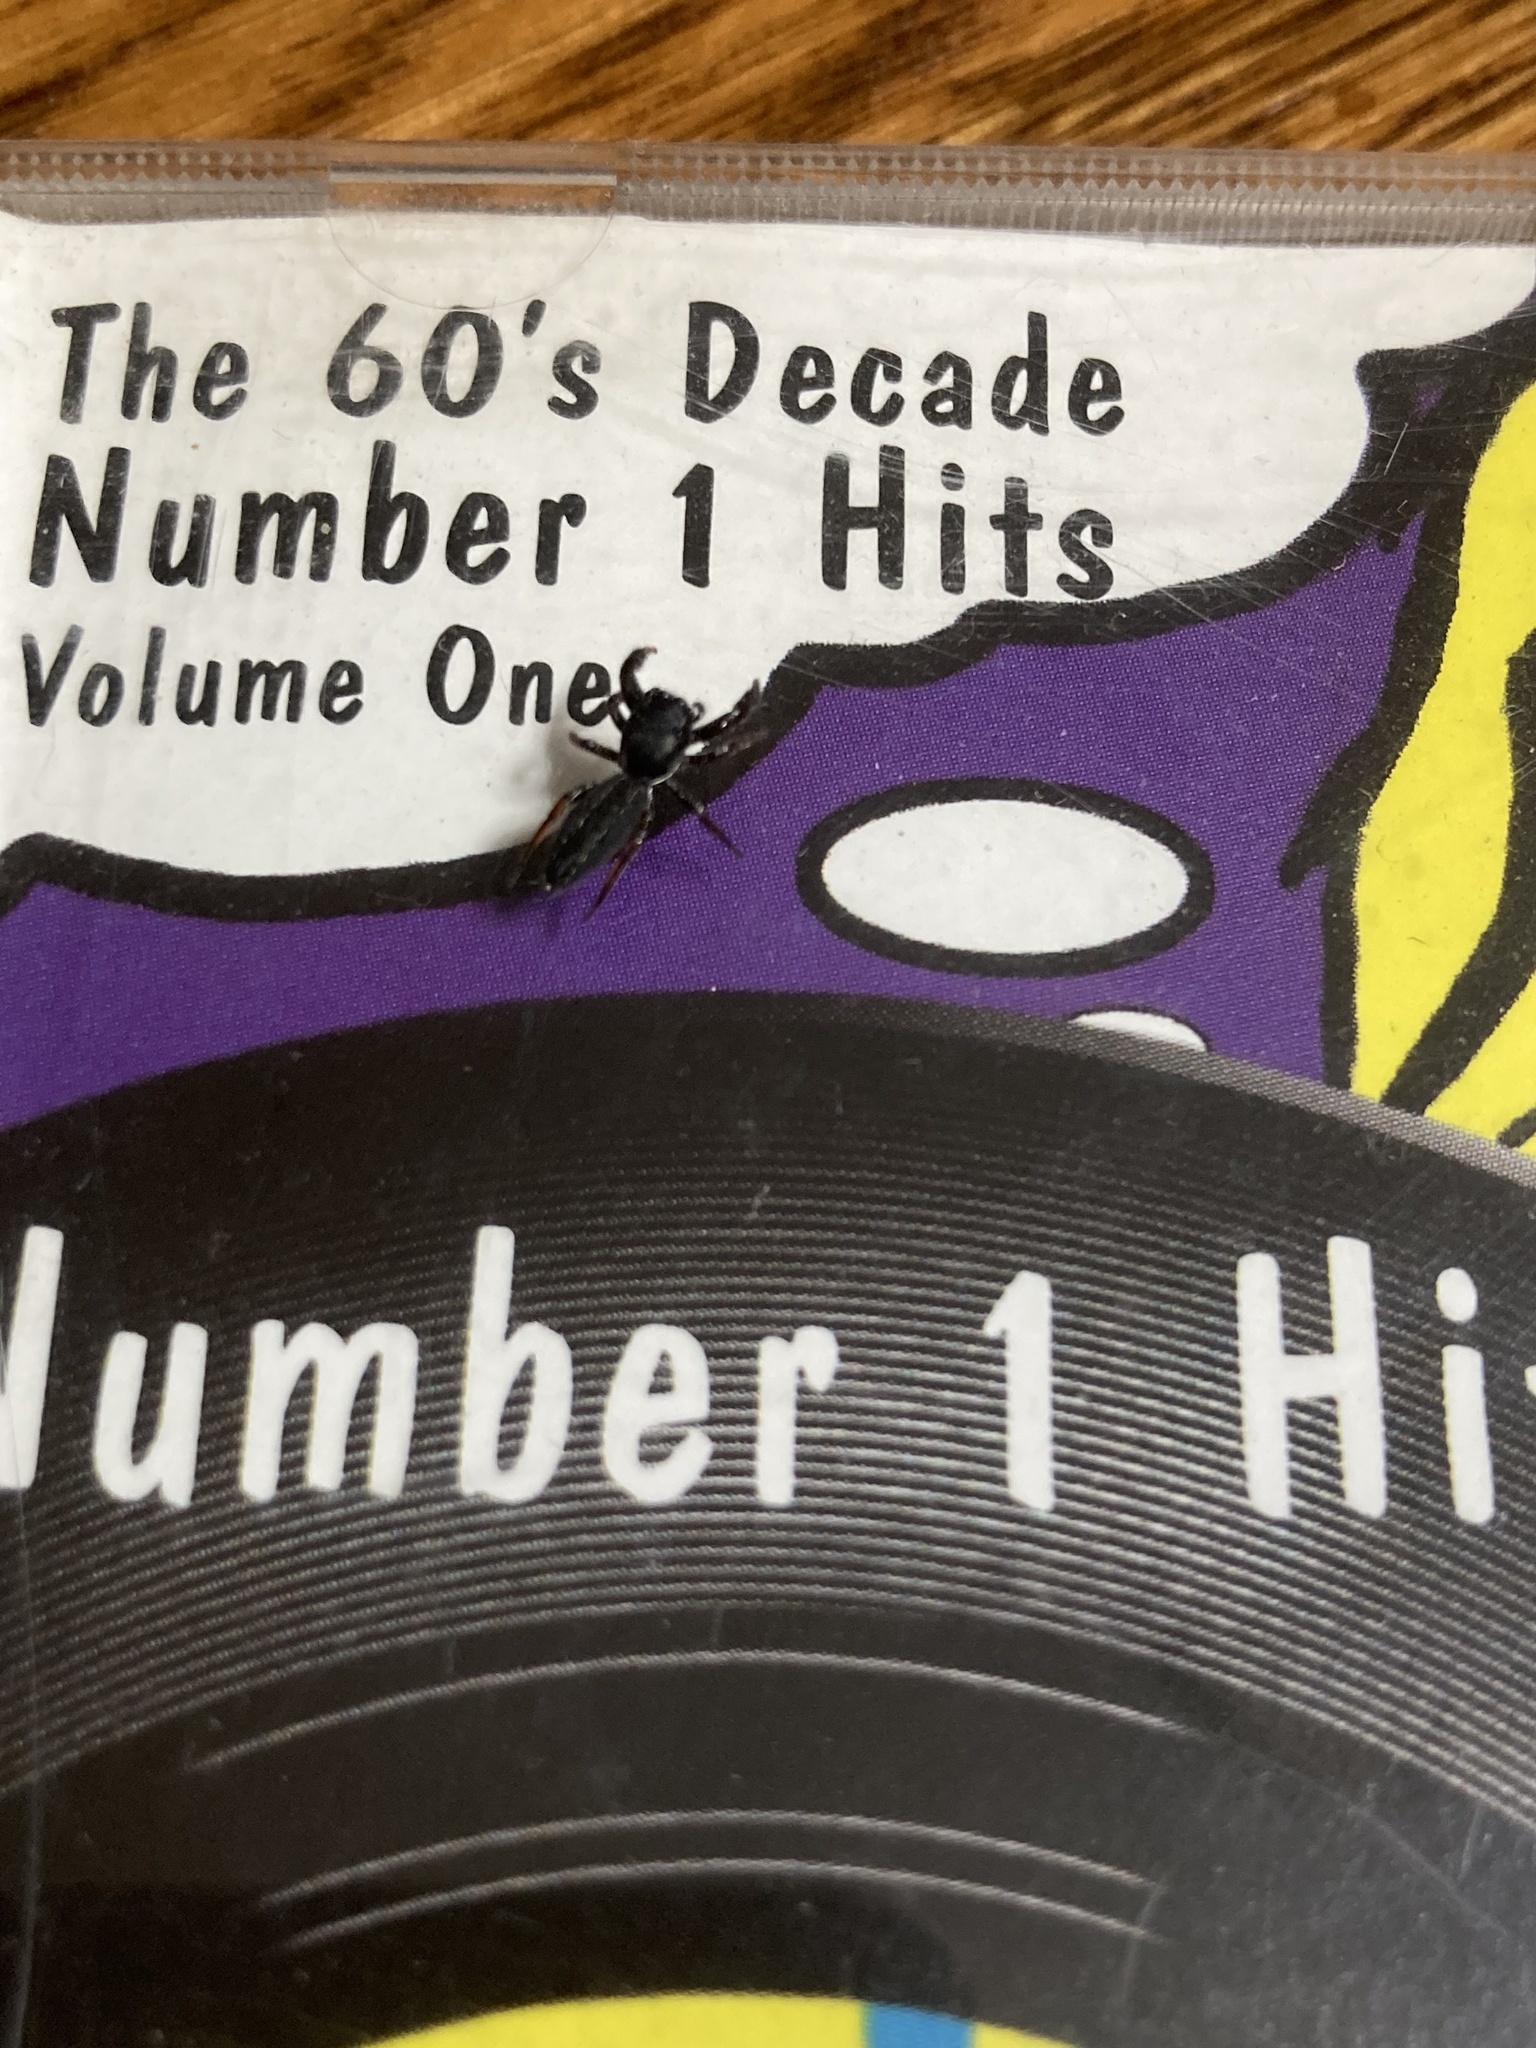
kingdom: Animalia
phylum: Arthropoda
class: Arachnida
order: Araneae
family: Salticidae
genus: Metacyrba
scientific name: Metacyrba taeniola
